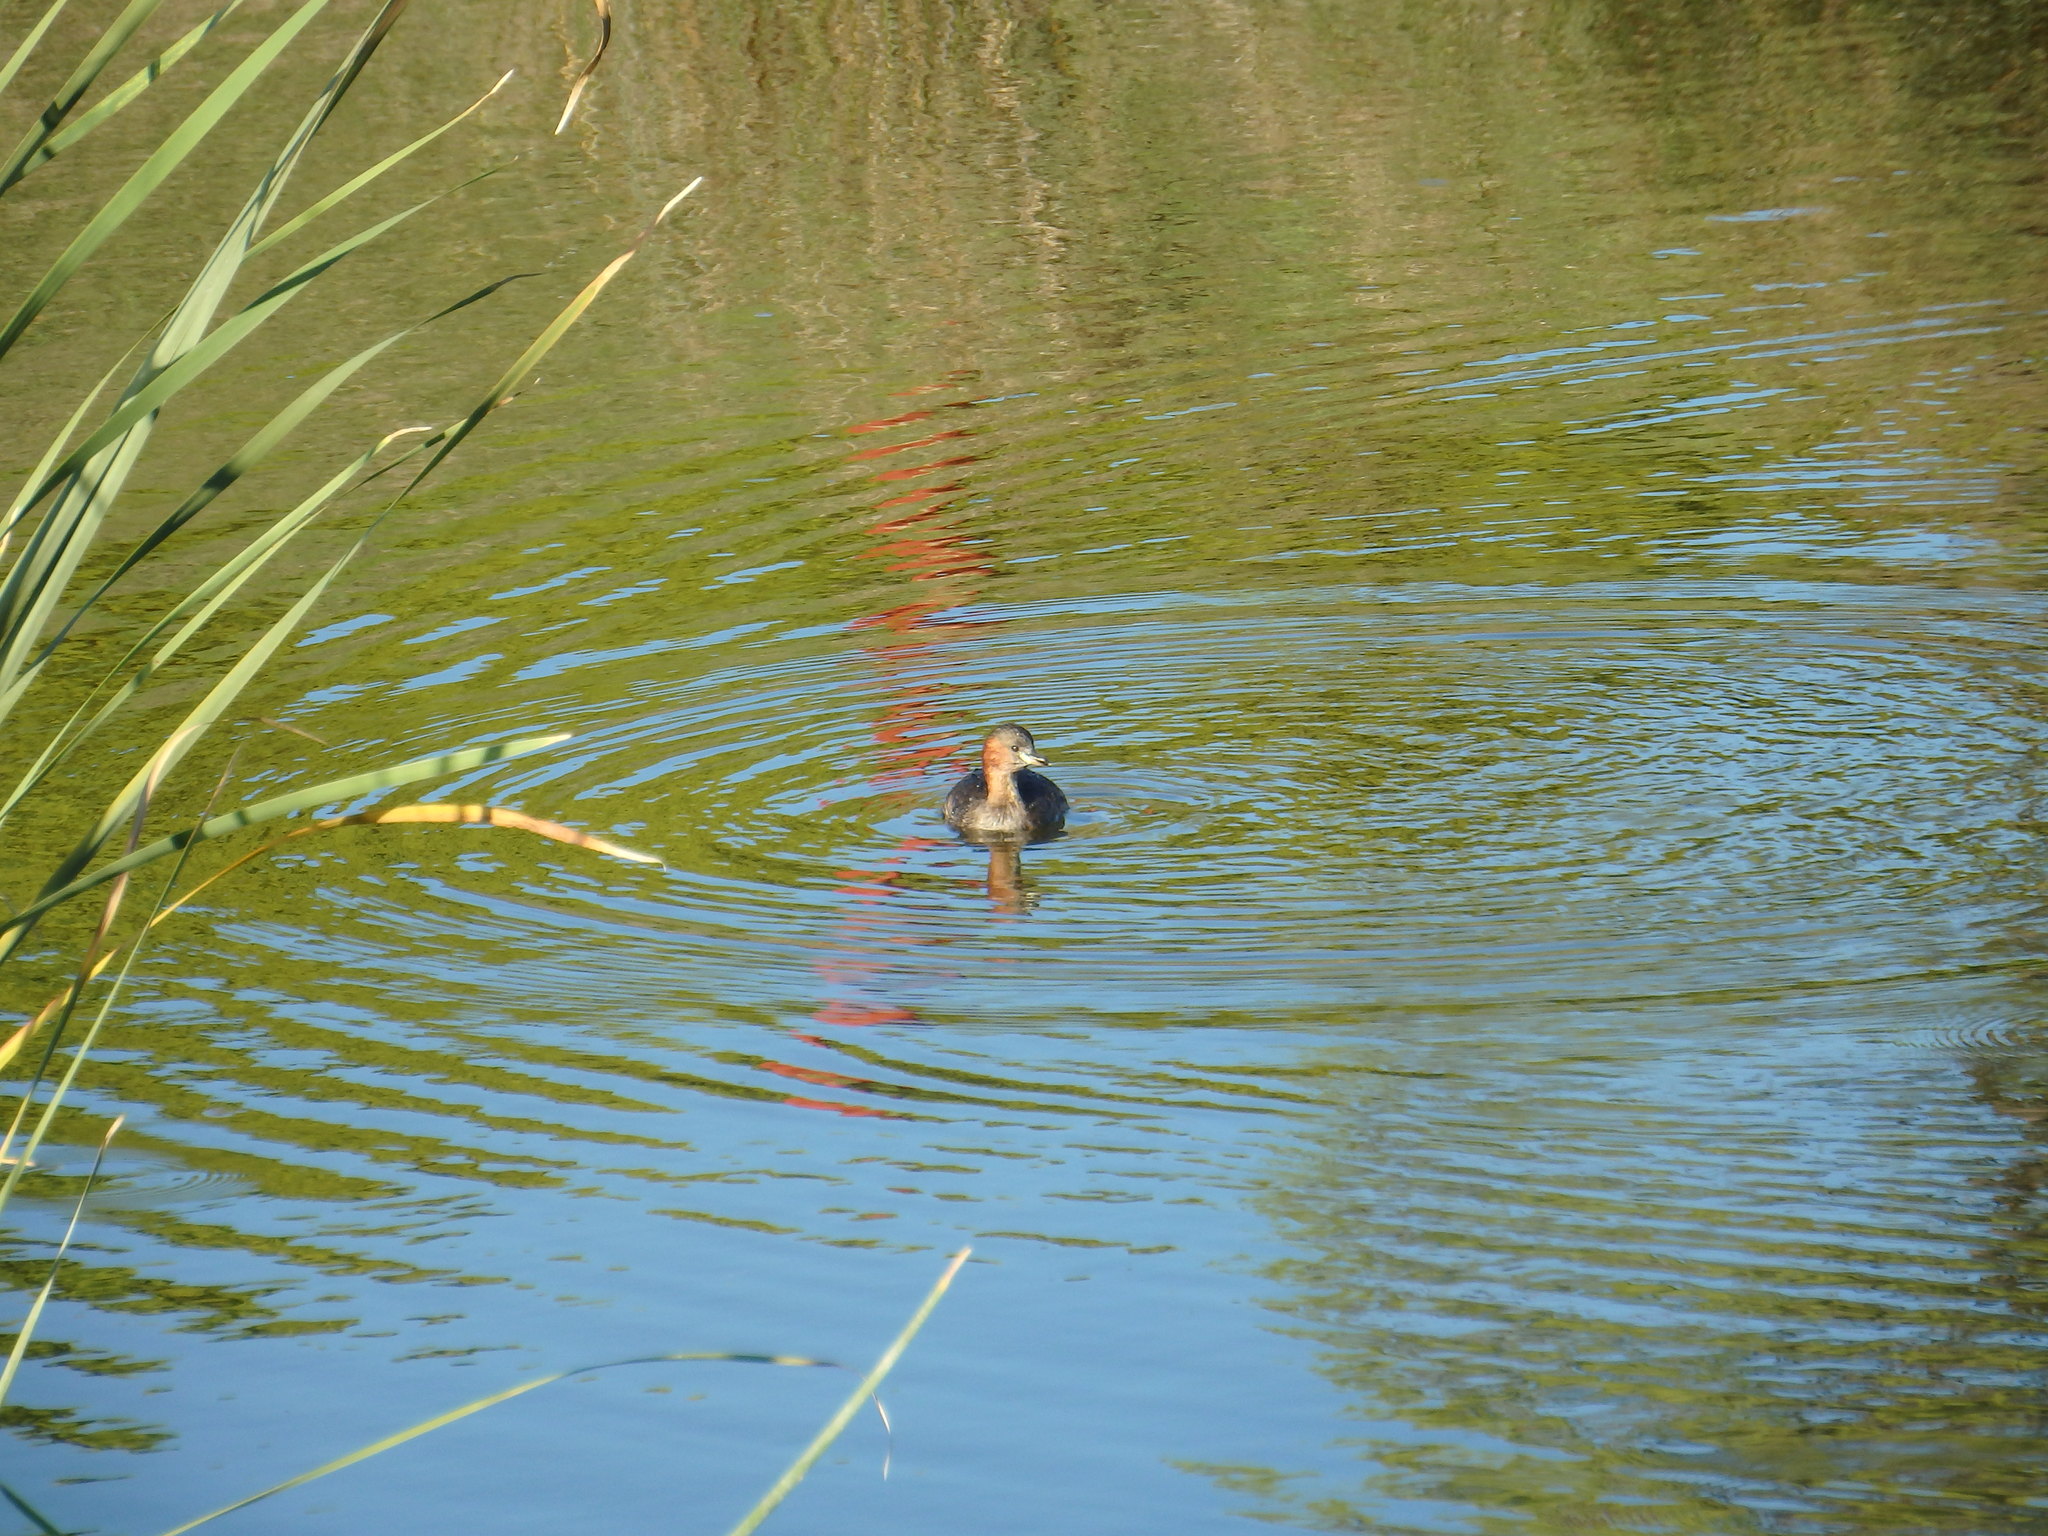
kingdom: Animalia
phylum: Chordata
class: Aves
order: Podicipediformes
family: Podicipedidae
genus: Tachybaptus
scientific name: Tachybaptus ruficollis
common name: Little grebe
